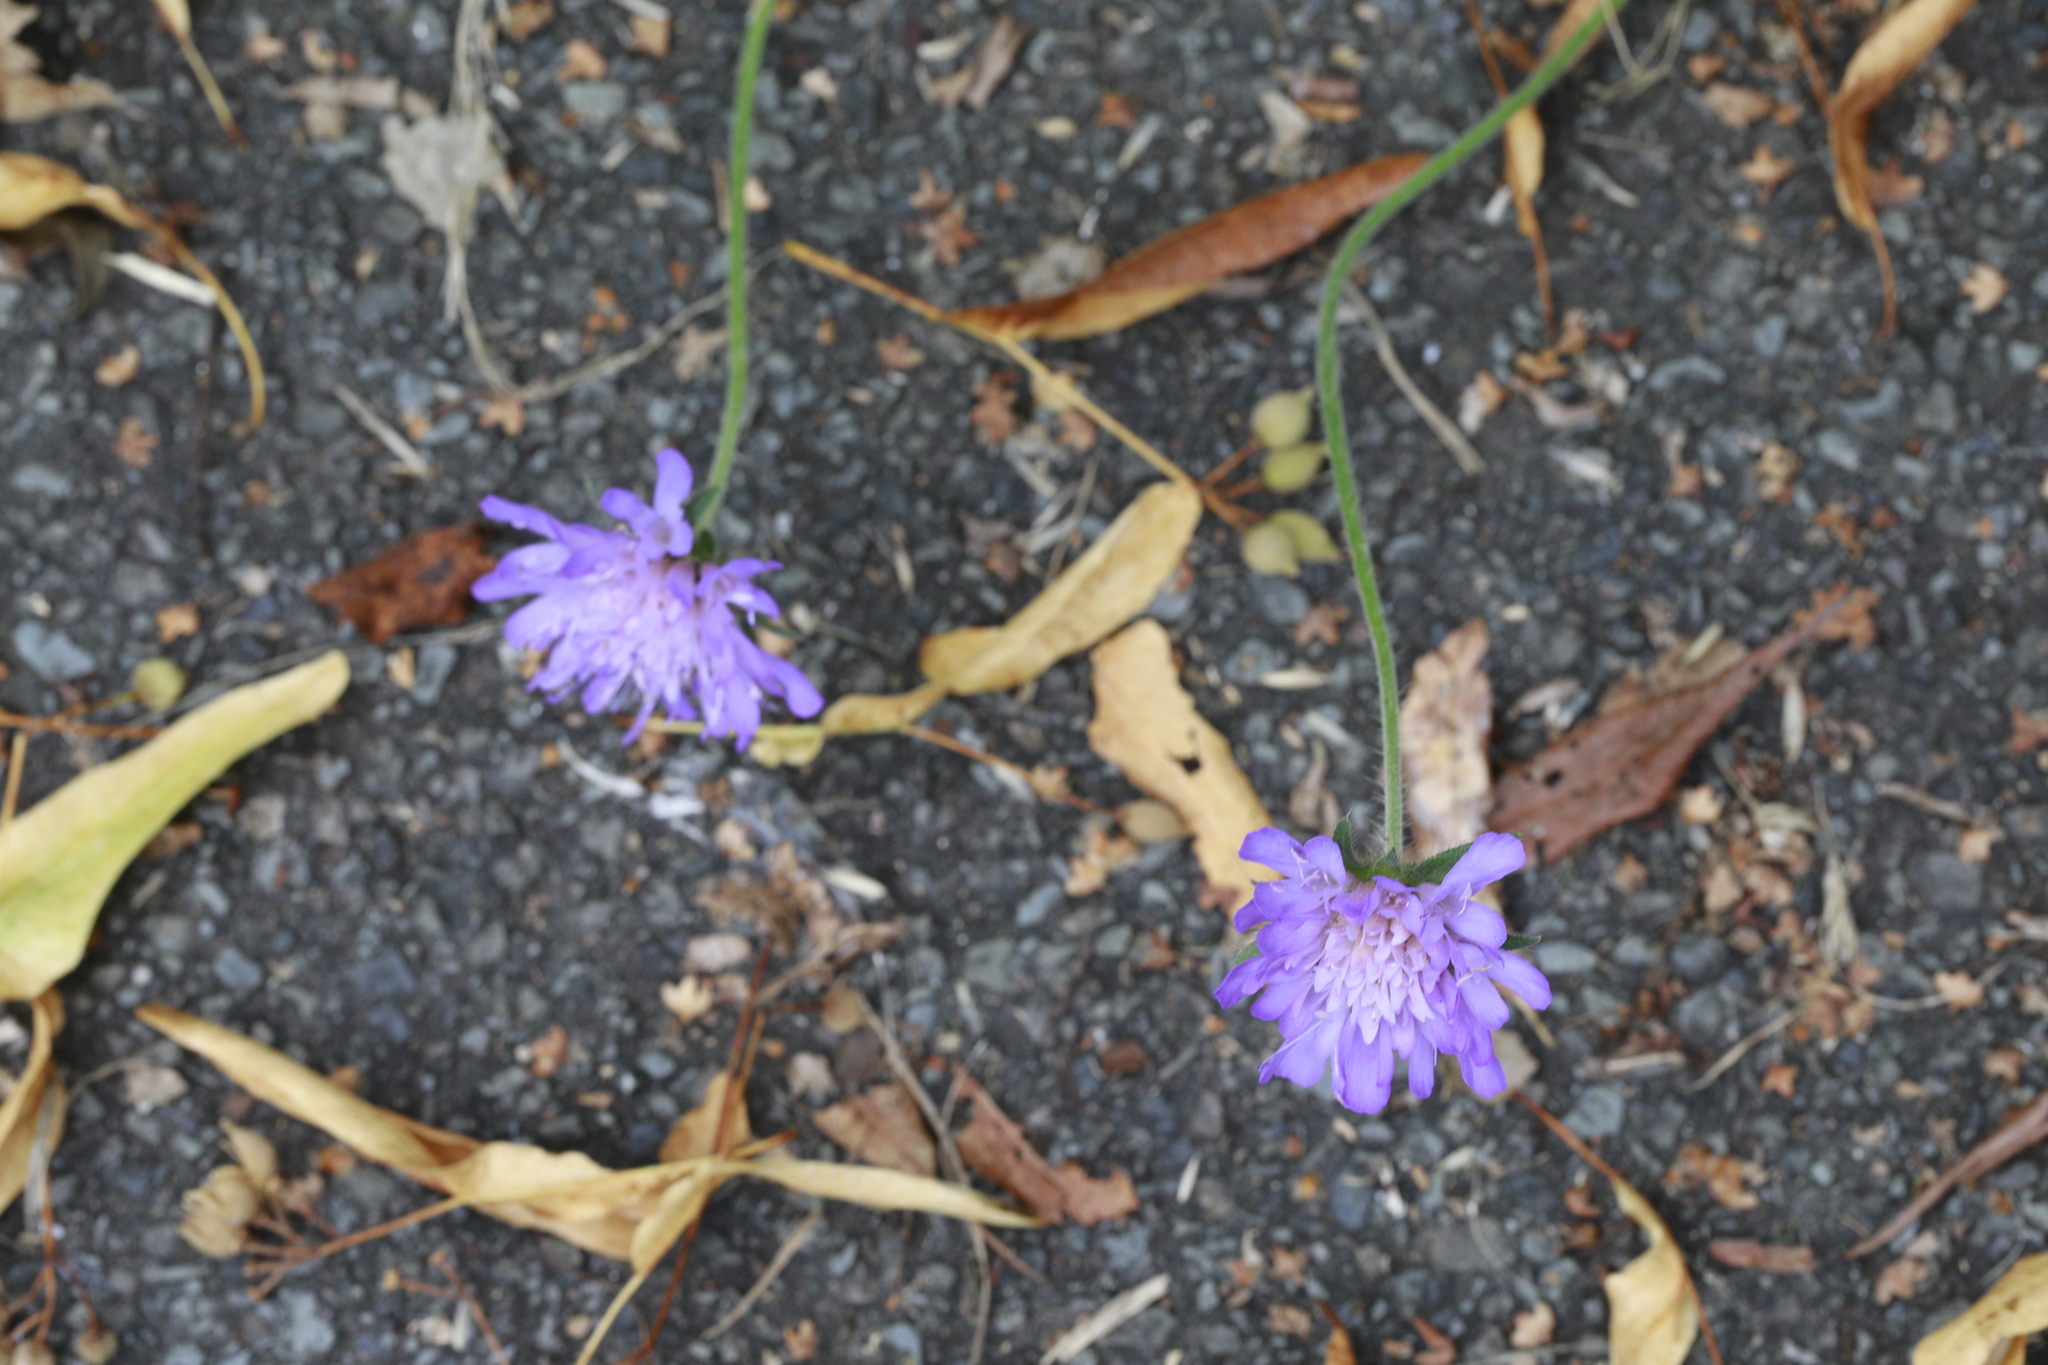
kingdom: Plantae
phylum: Tracheophyta
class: Magnoliopsida
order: Dipsacales
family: Caprifoliaceae
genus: Knautia
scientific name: Knautia arvensis
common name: Field scabiosa
